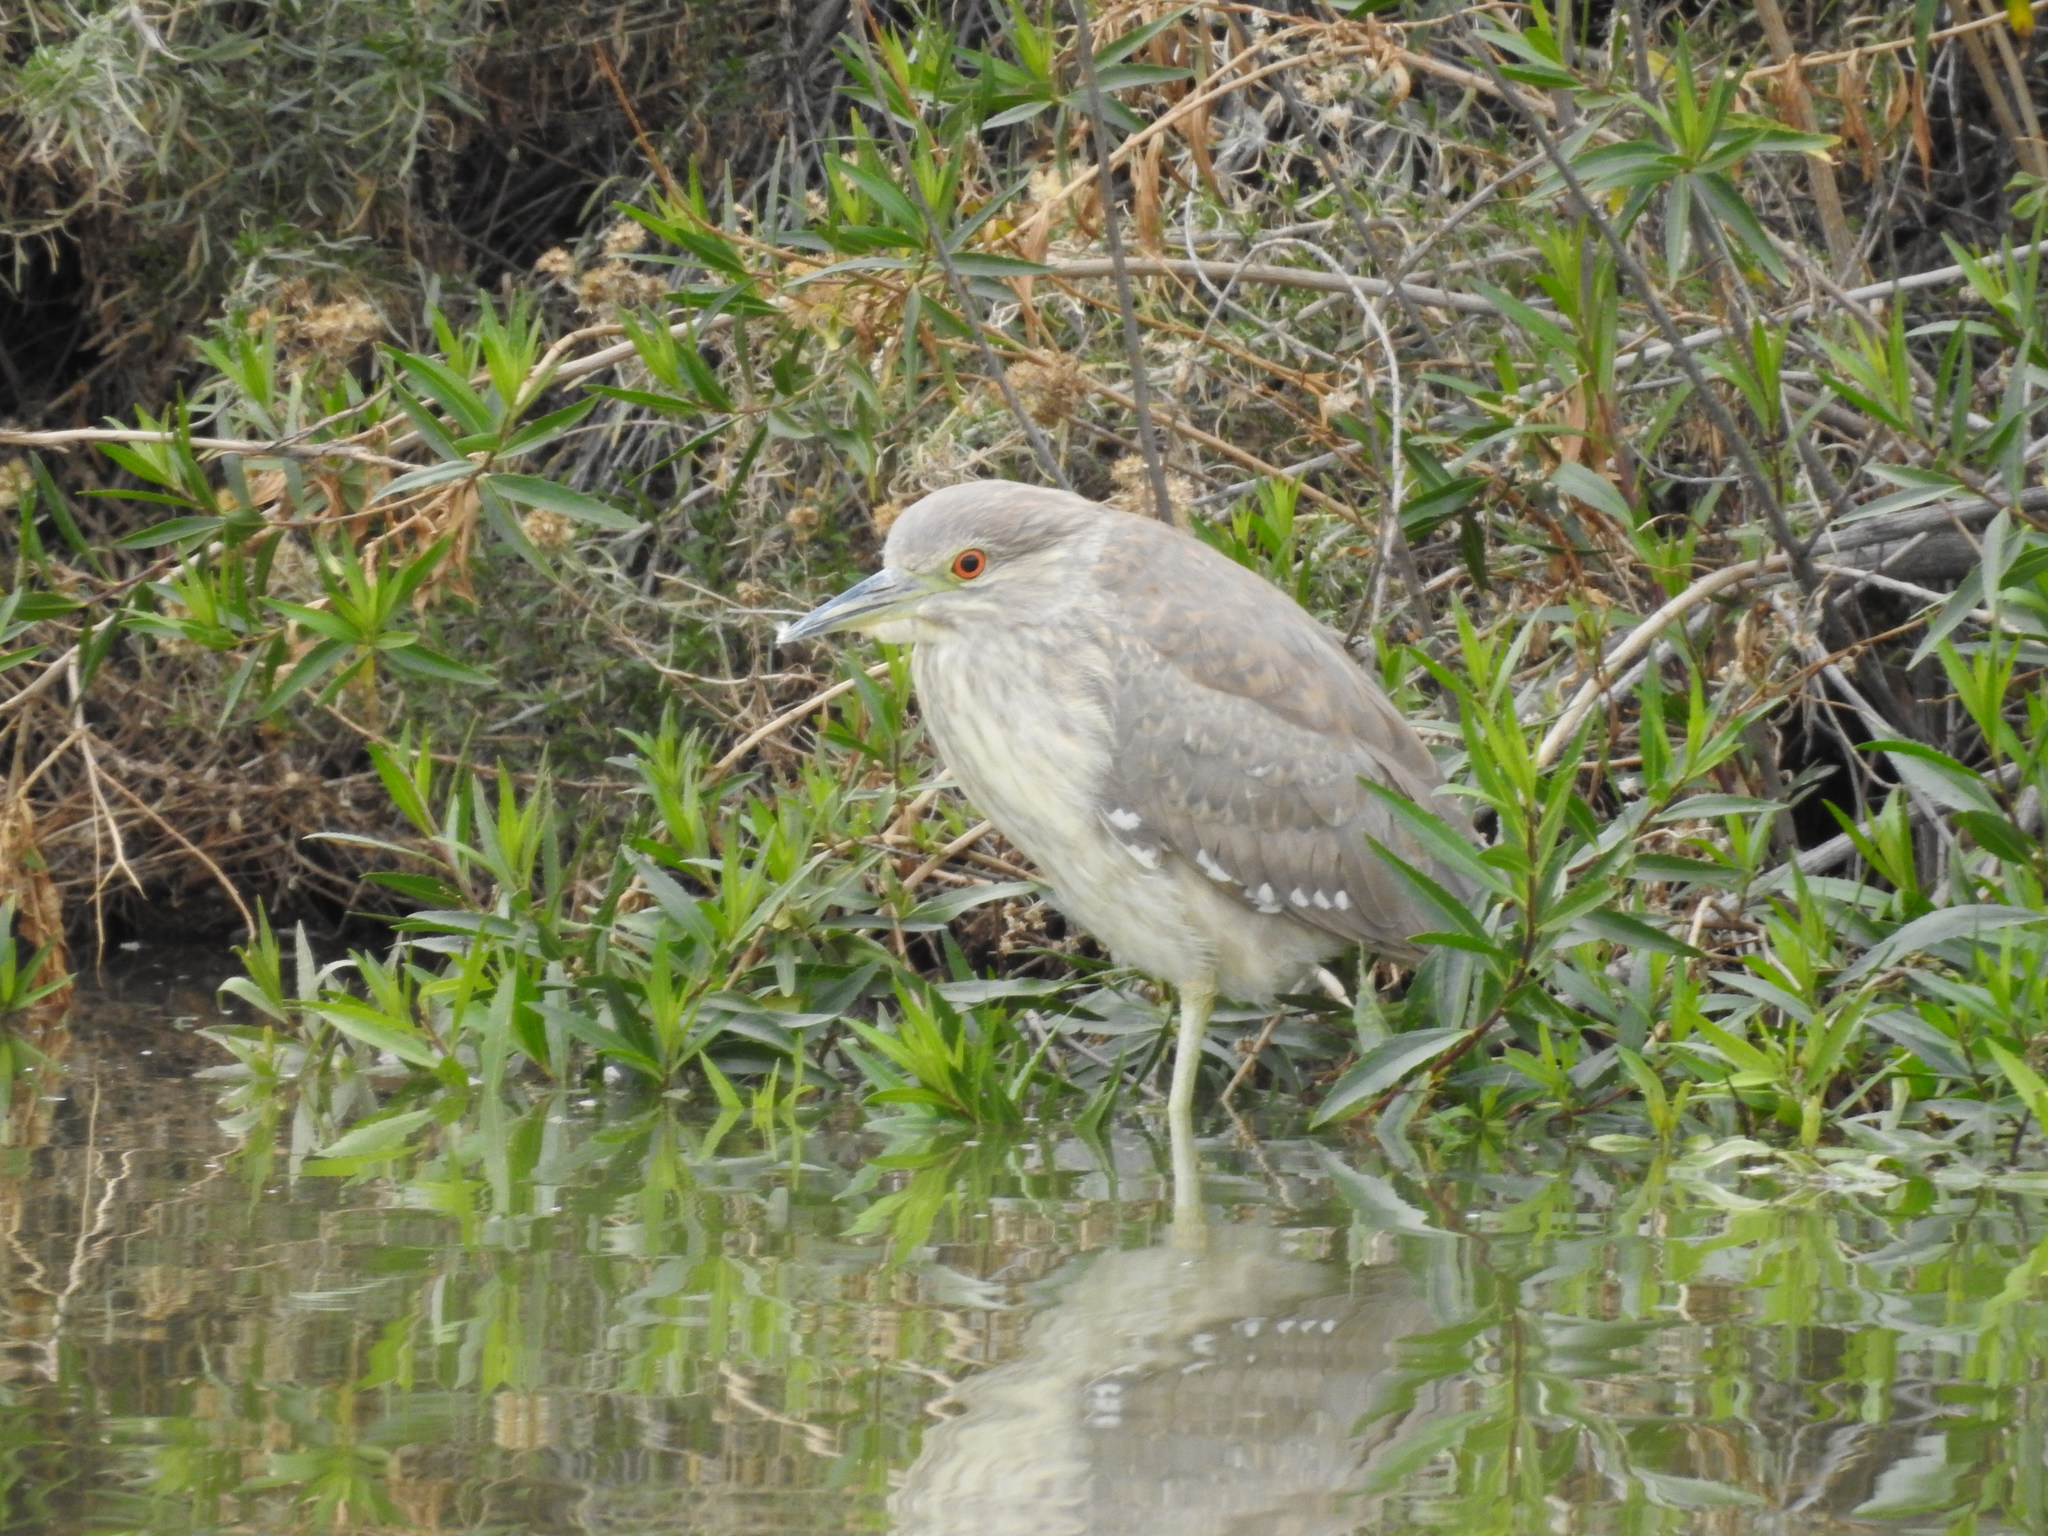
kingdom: Animalia
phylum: Chordata
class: Aves
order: Pelecaniformes
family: Ardeidae
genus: Nycticorax
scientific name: Nycticorax nycticorax
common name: Black-crowned night heron
